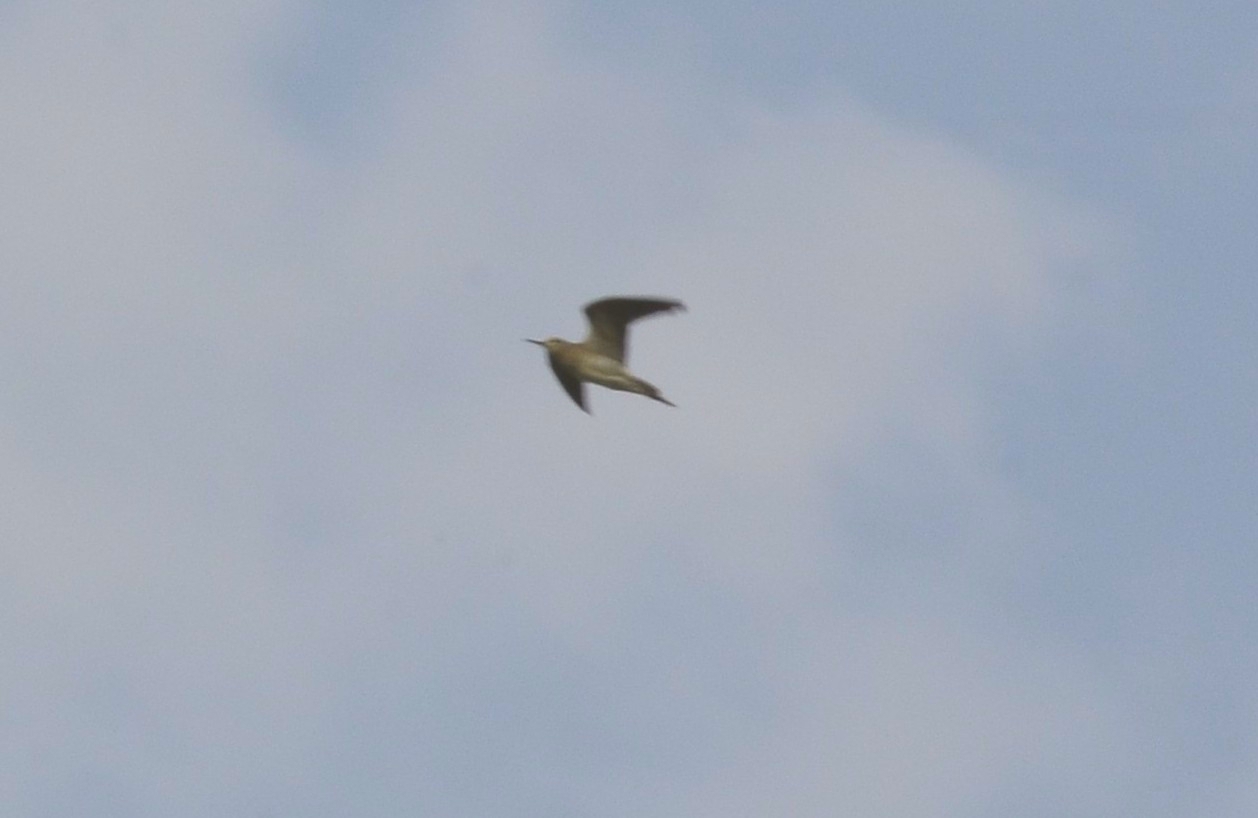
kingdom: Animalia
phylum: Chordata
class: Aves
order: Charadriiformes
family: Scolopacidae
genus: Tringa
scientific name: Tringa glareola
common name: Wood sandpiper
